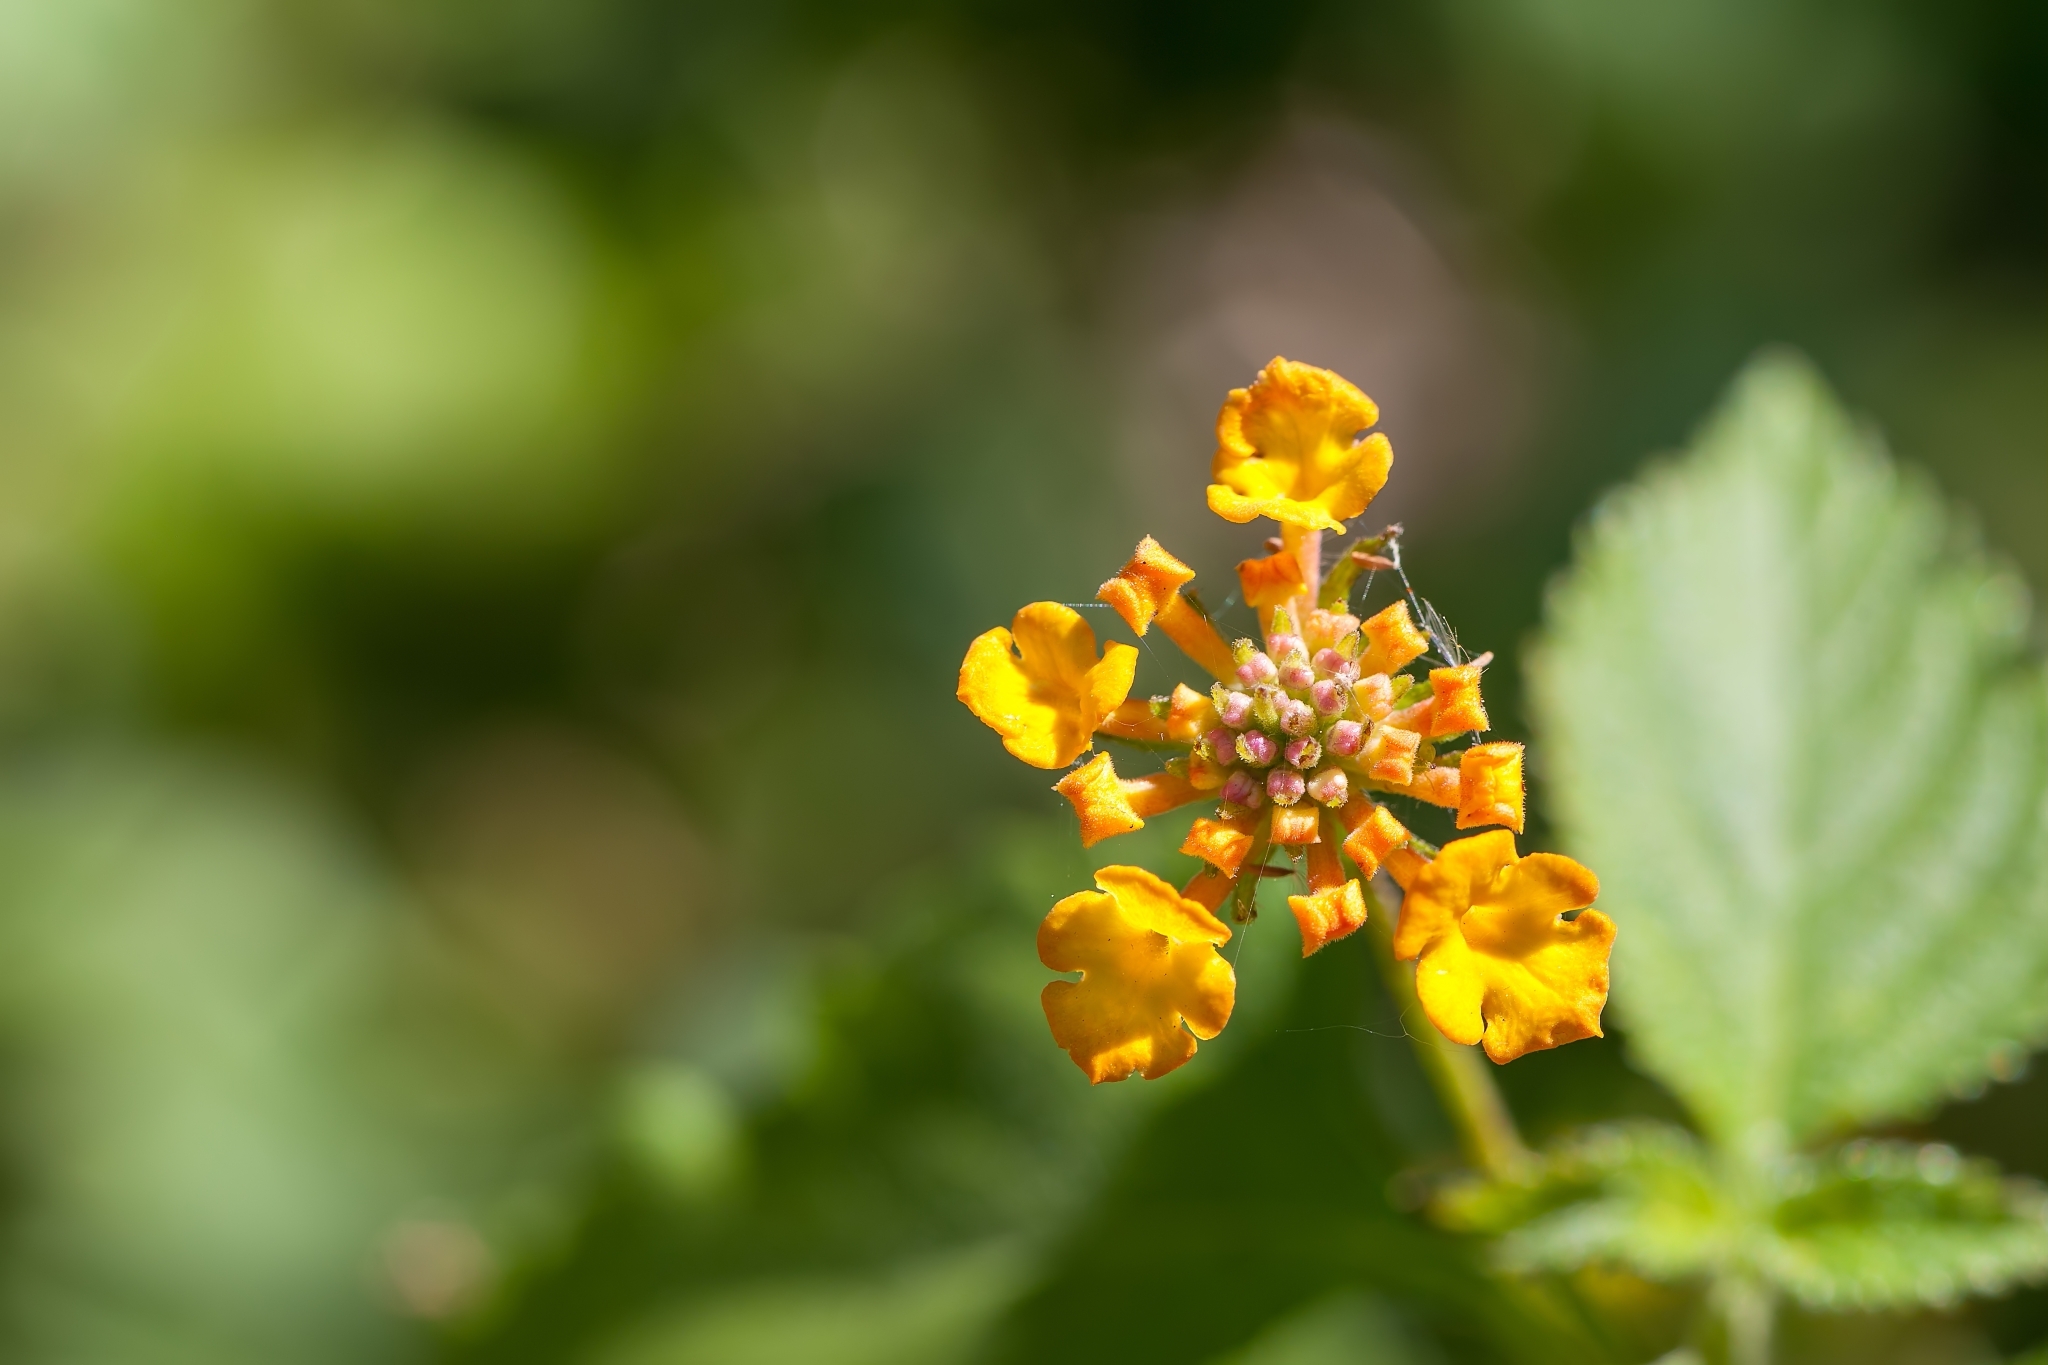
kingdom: Plantae
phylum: Tracheophyta
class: Magnoliopsida
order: Lamiales
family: Verbenaceae
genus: Lantana
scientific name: Lantana strigocamara
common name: Lantana
